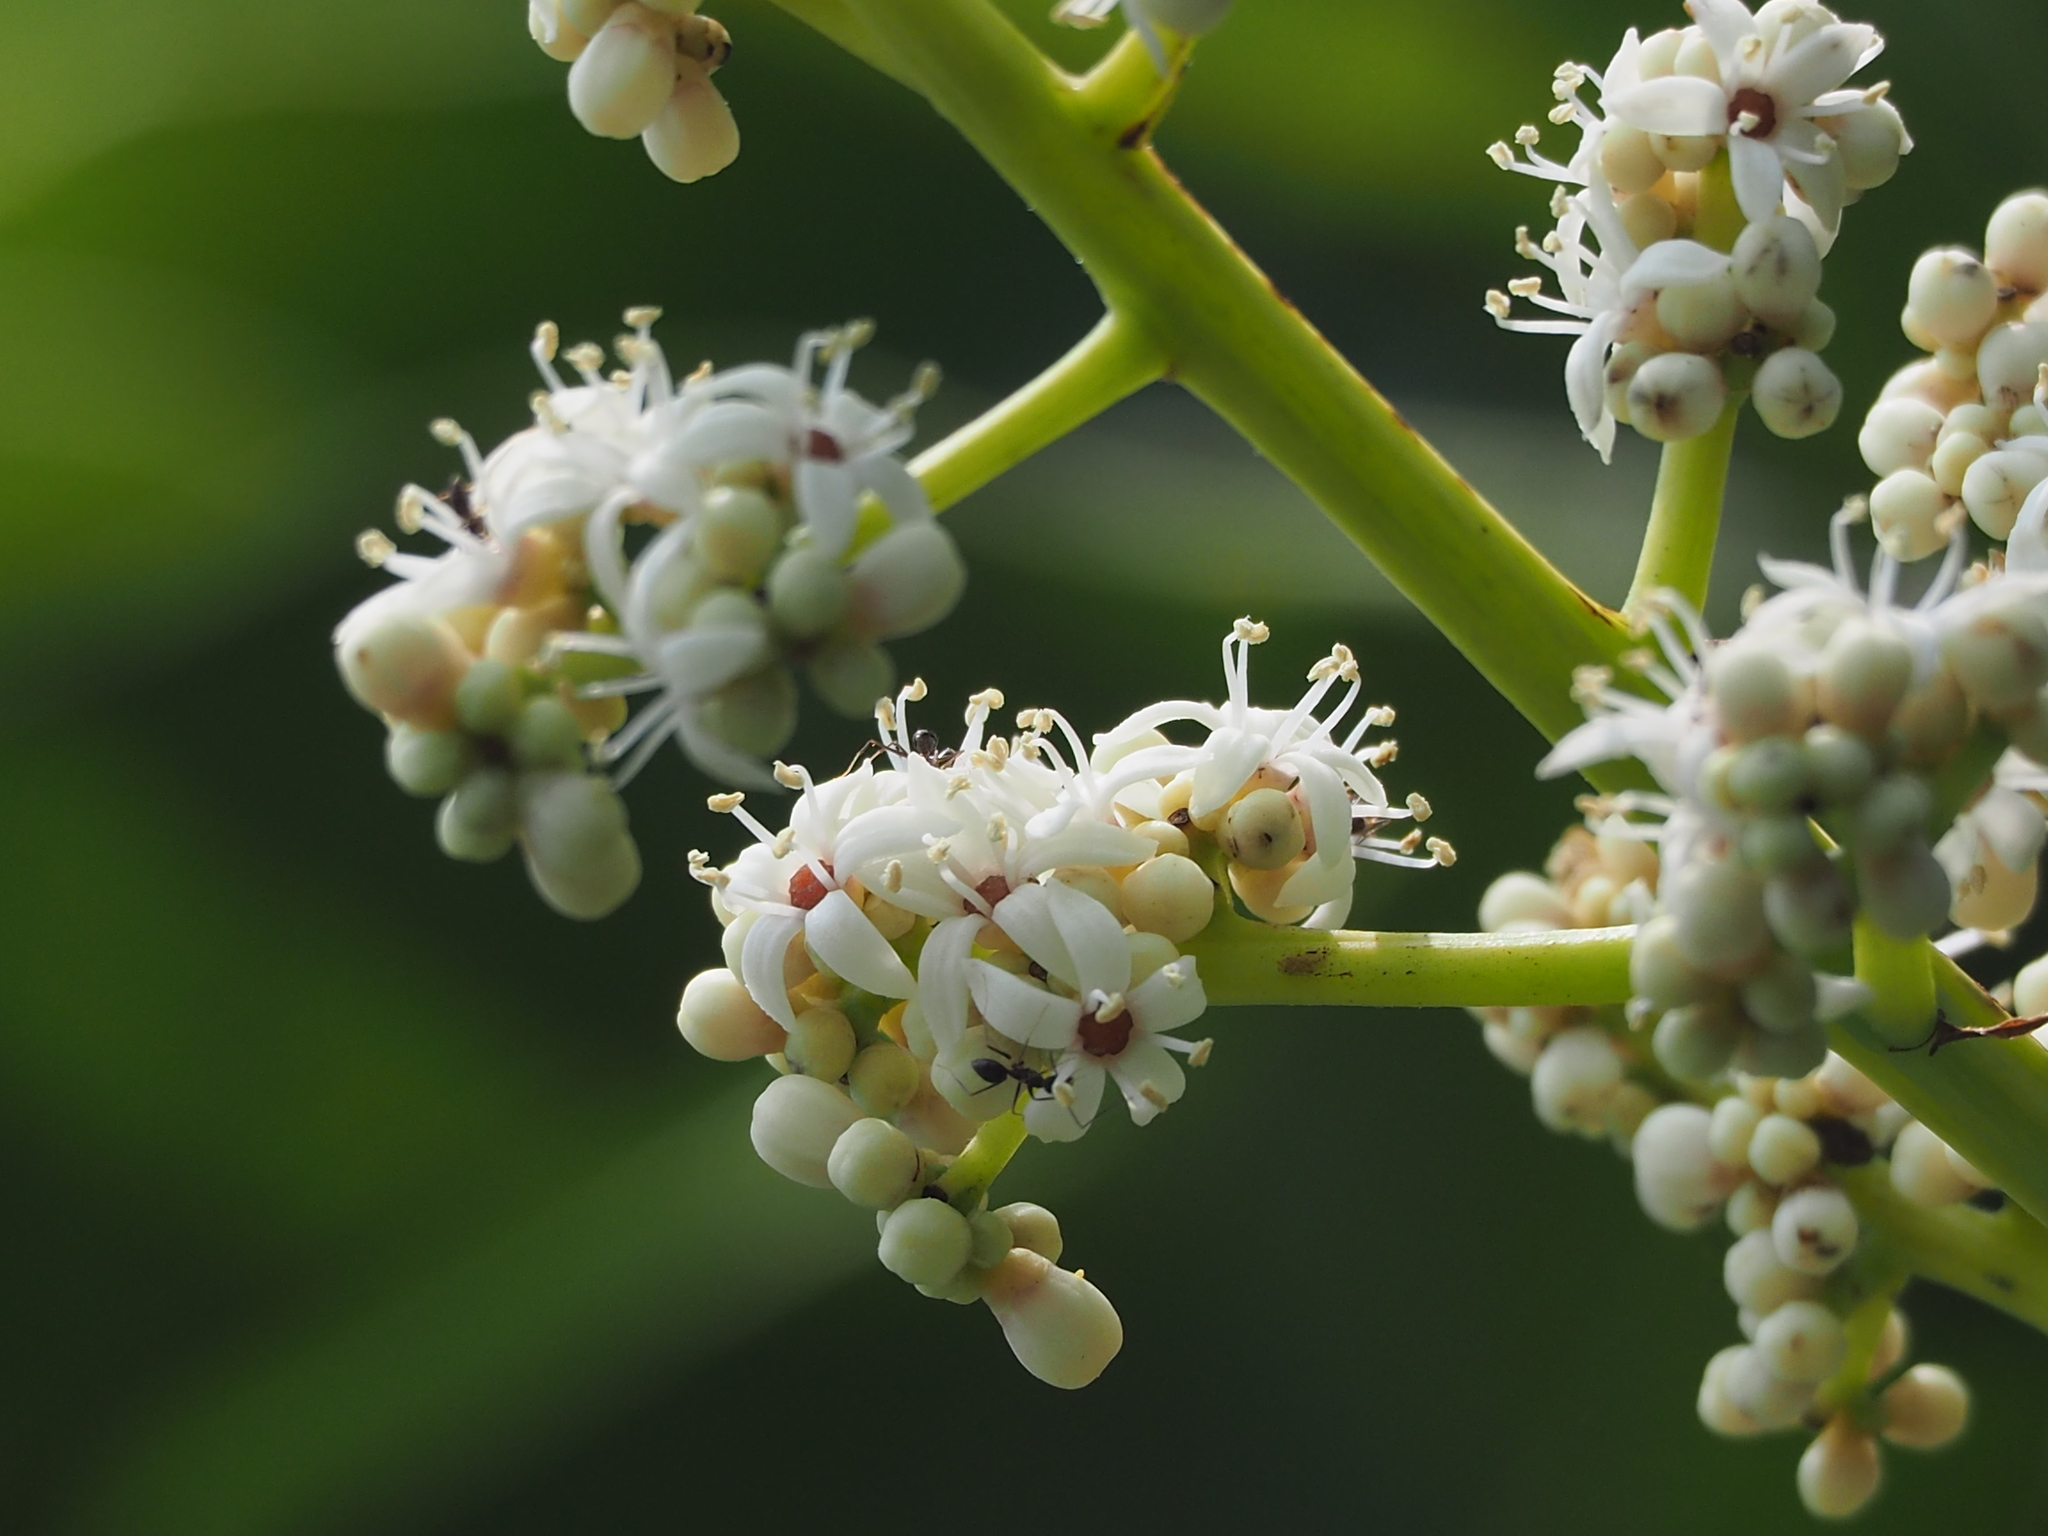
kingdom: Plantae
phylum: Tracheophyta
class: Magnoliopsida
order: Sapindales
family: Anacardiaceae
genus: Semecarpus
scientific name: Semecarpus longifolius
